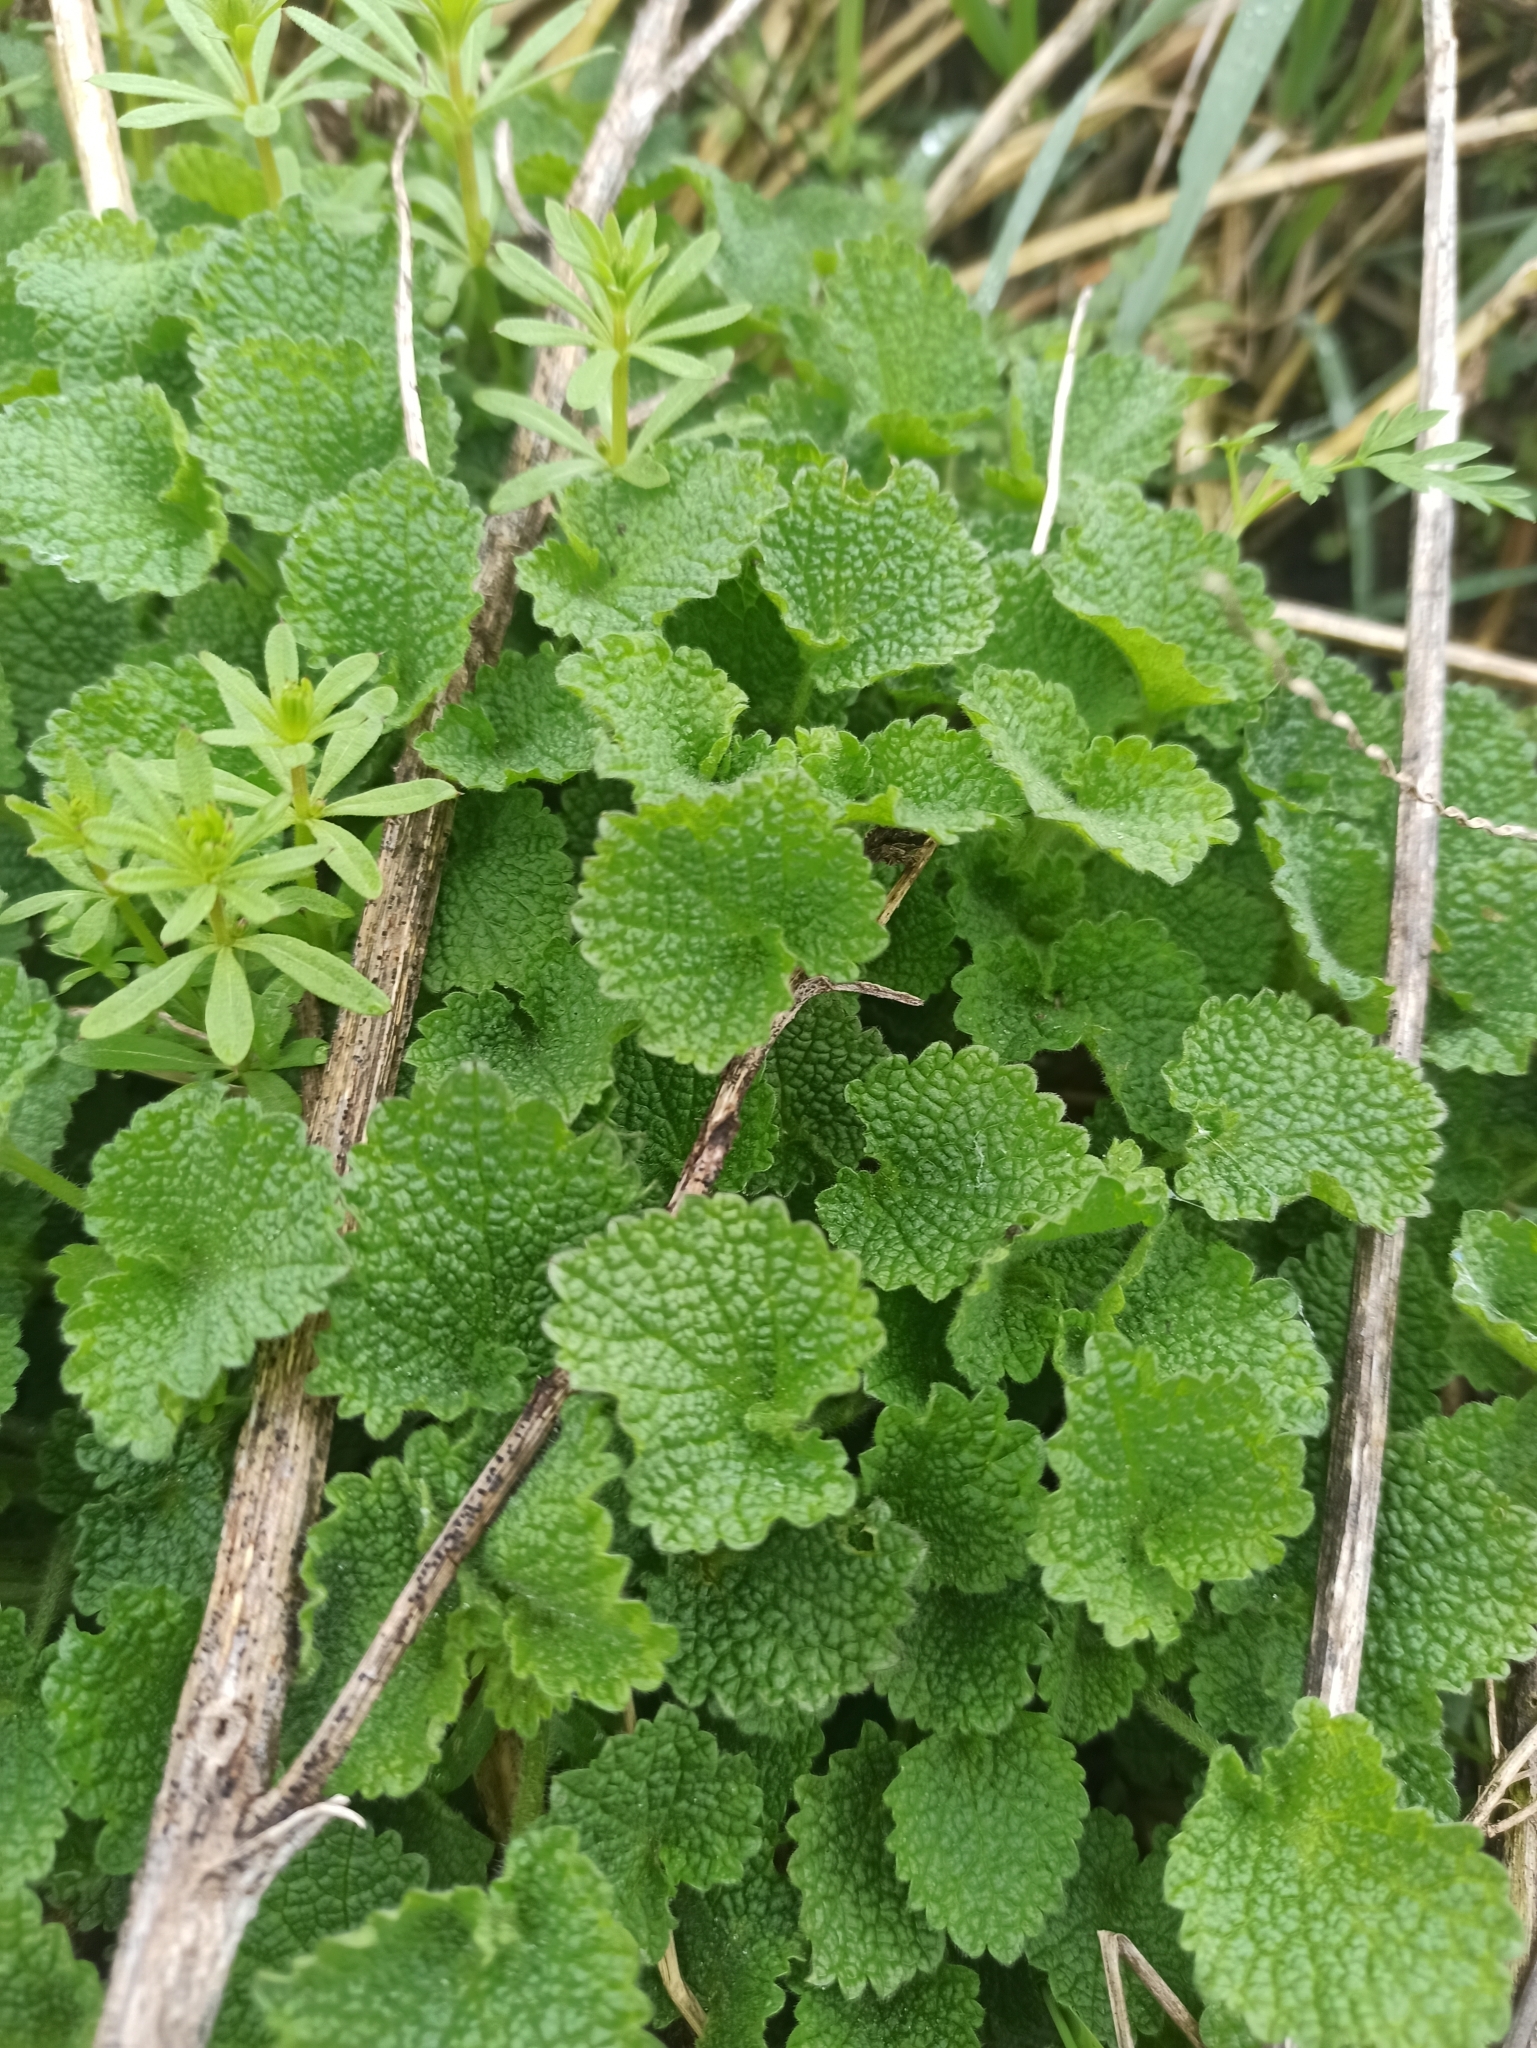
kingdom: Plantae
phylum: Tracheophyta
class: Magnoliopsida
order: Lamiales
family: Lamiaceae
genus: Ballota
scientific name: Ballota nigra
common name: Black horehound
